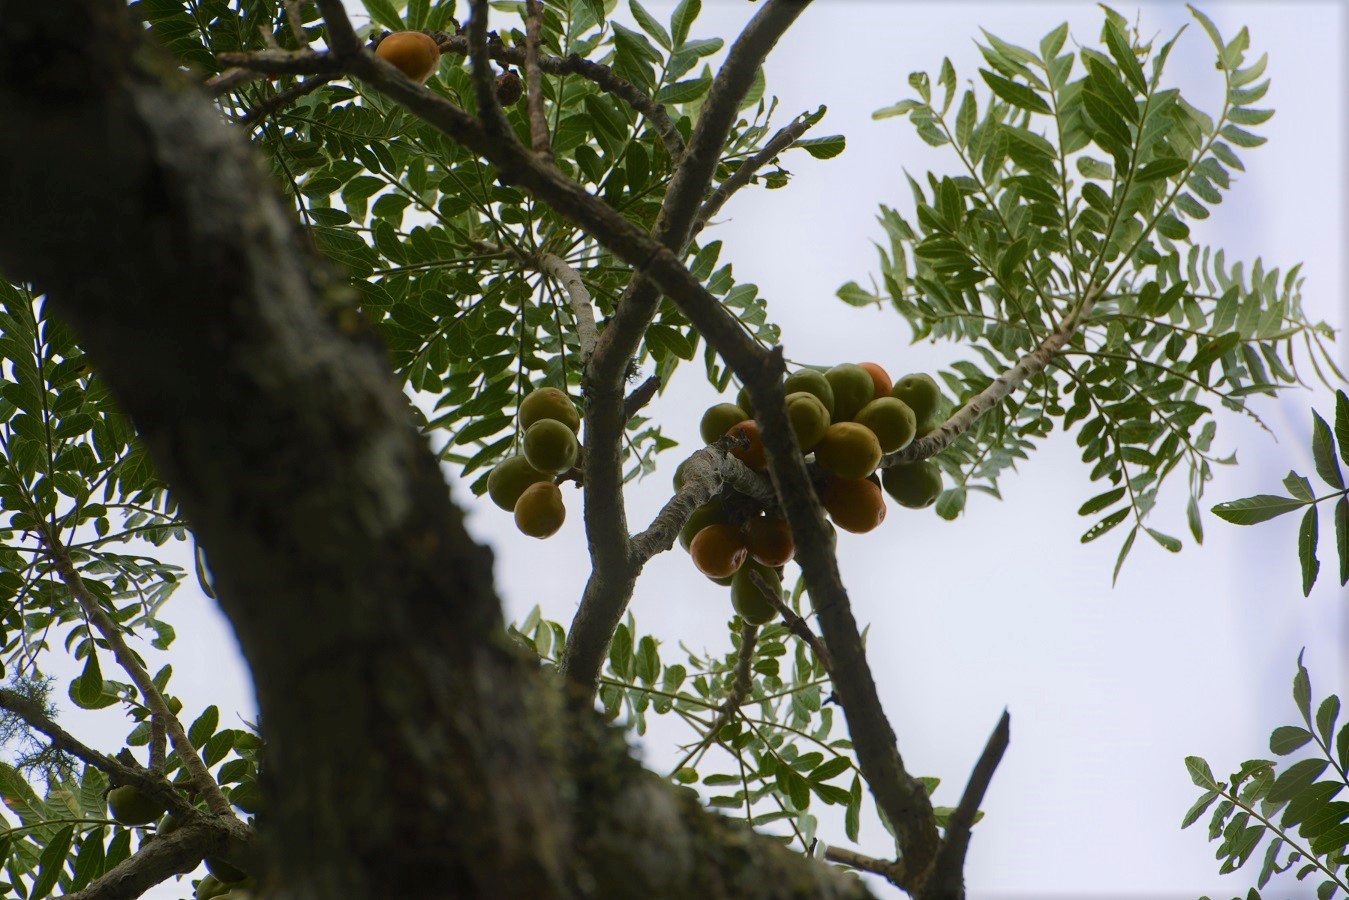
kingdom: Plantae
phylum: Tracheophyta
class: Magnoliopsida
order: Sapindales
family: Anacardiaceae
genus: Spondias
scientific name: Spondias purpurea
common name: Purple mombin
